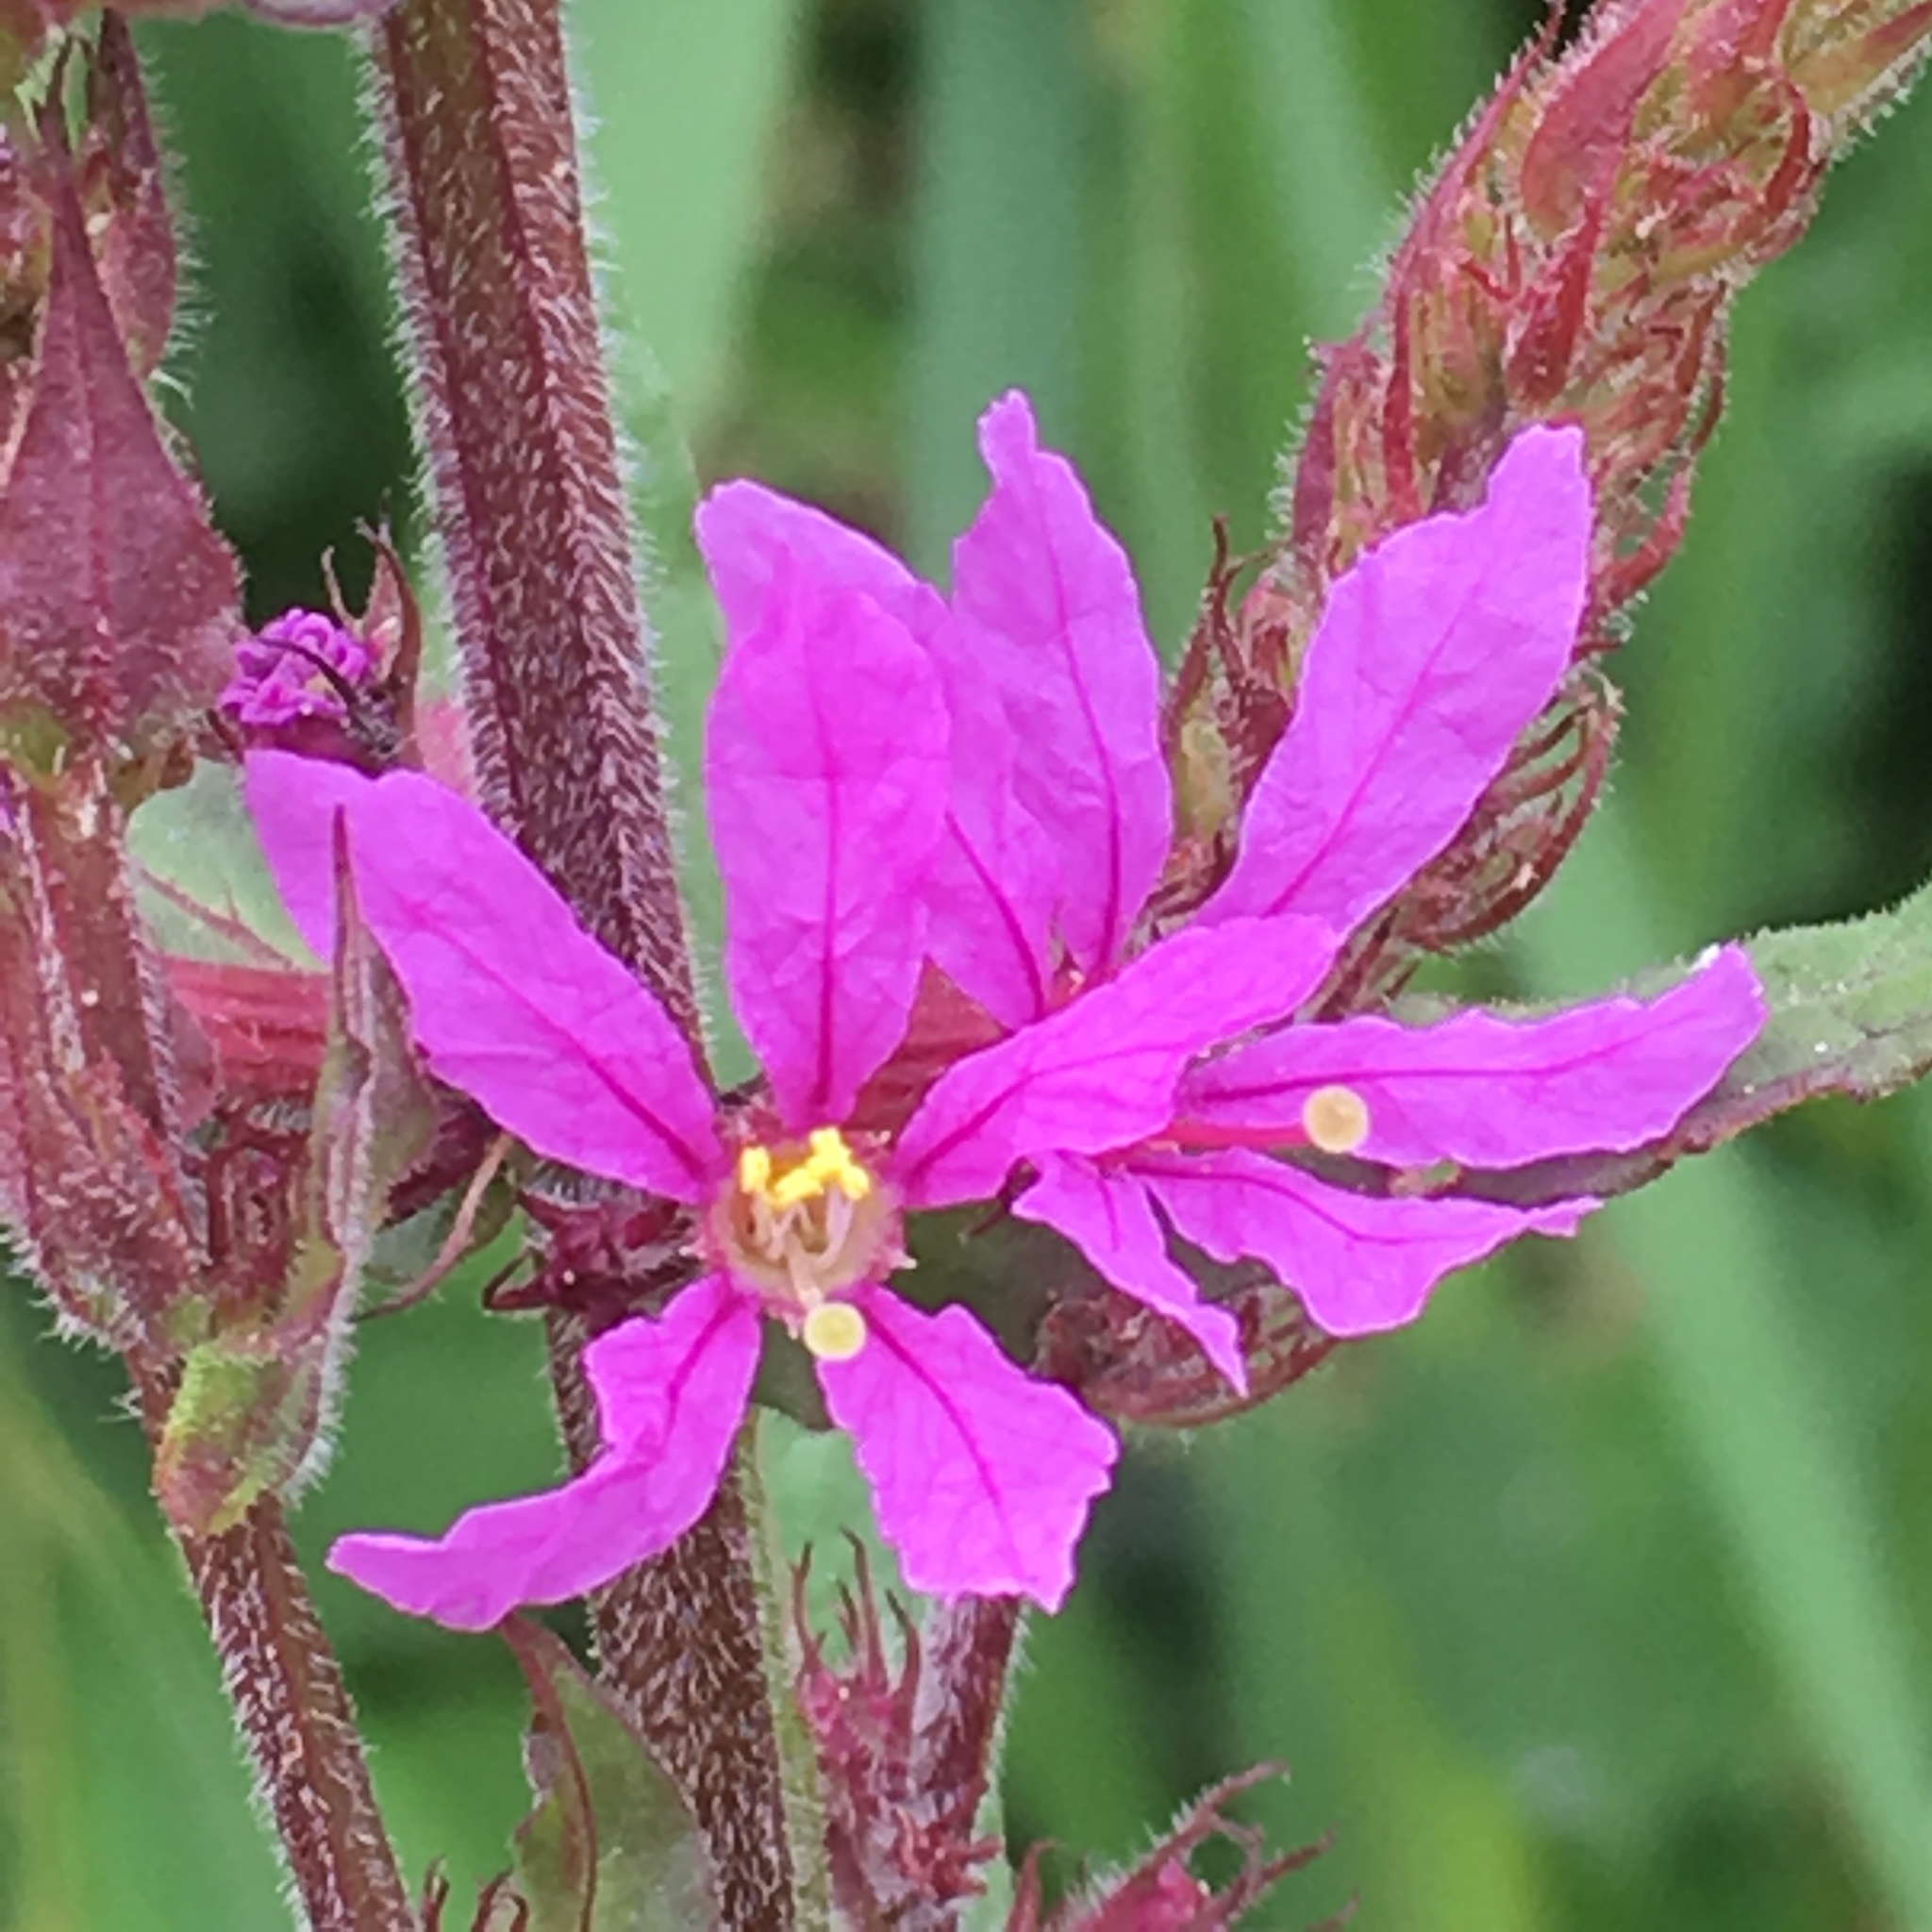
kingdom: Plantae
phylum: Tracheophyta
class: Magnoliopsida
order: Myrtales
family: Lythraceae
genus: Lythrum
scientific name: Lythrum salicaria
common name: Purple loosestrife
